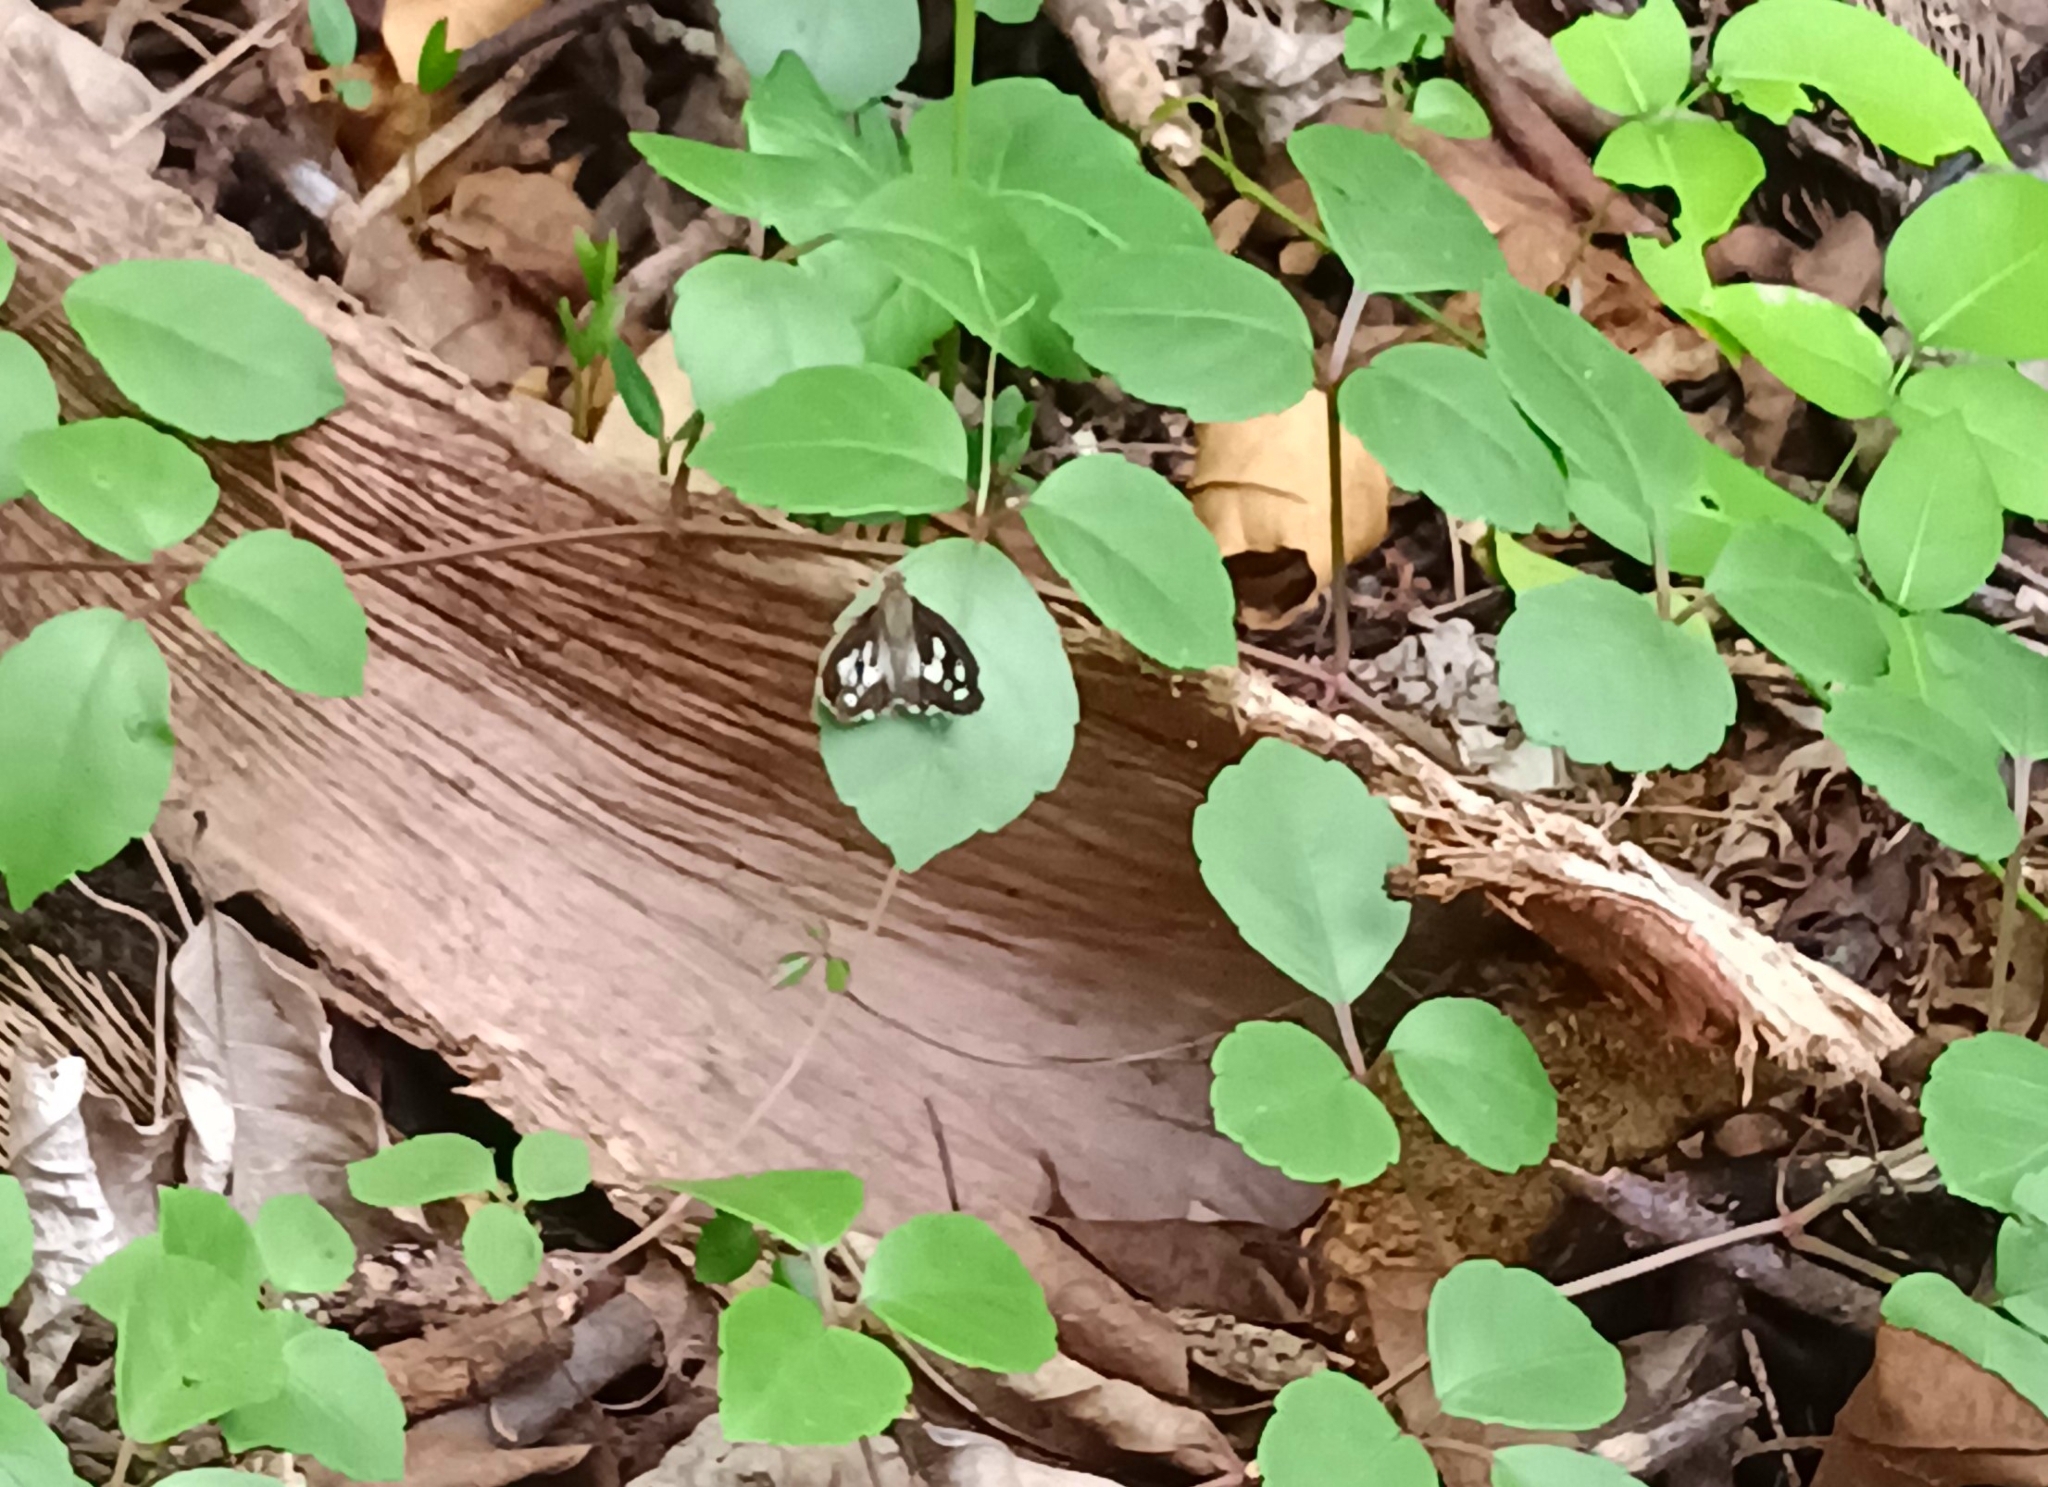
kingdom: Animalia
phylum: Arthropoda
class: Insecta
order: Lepidoptera
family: Hesperiidae
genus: Udaspes
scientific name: Udaspes folus
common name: Grass demon
